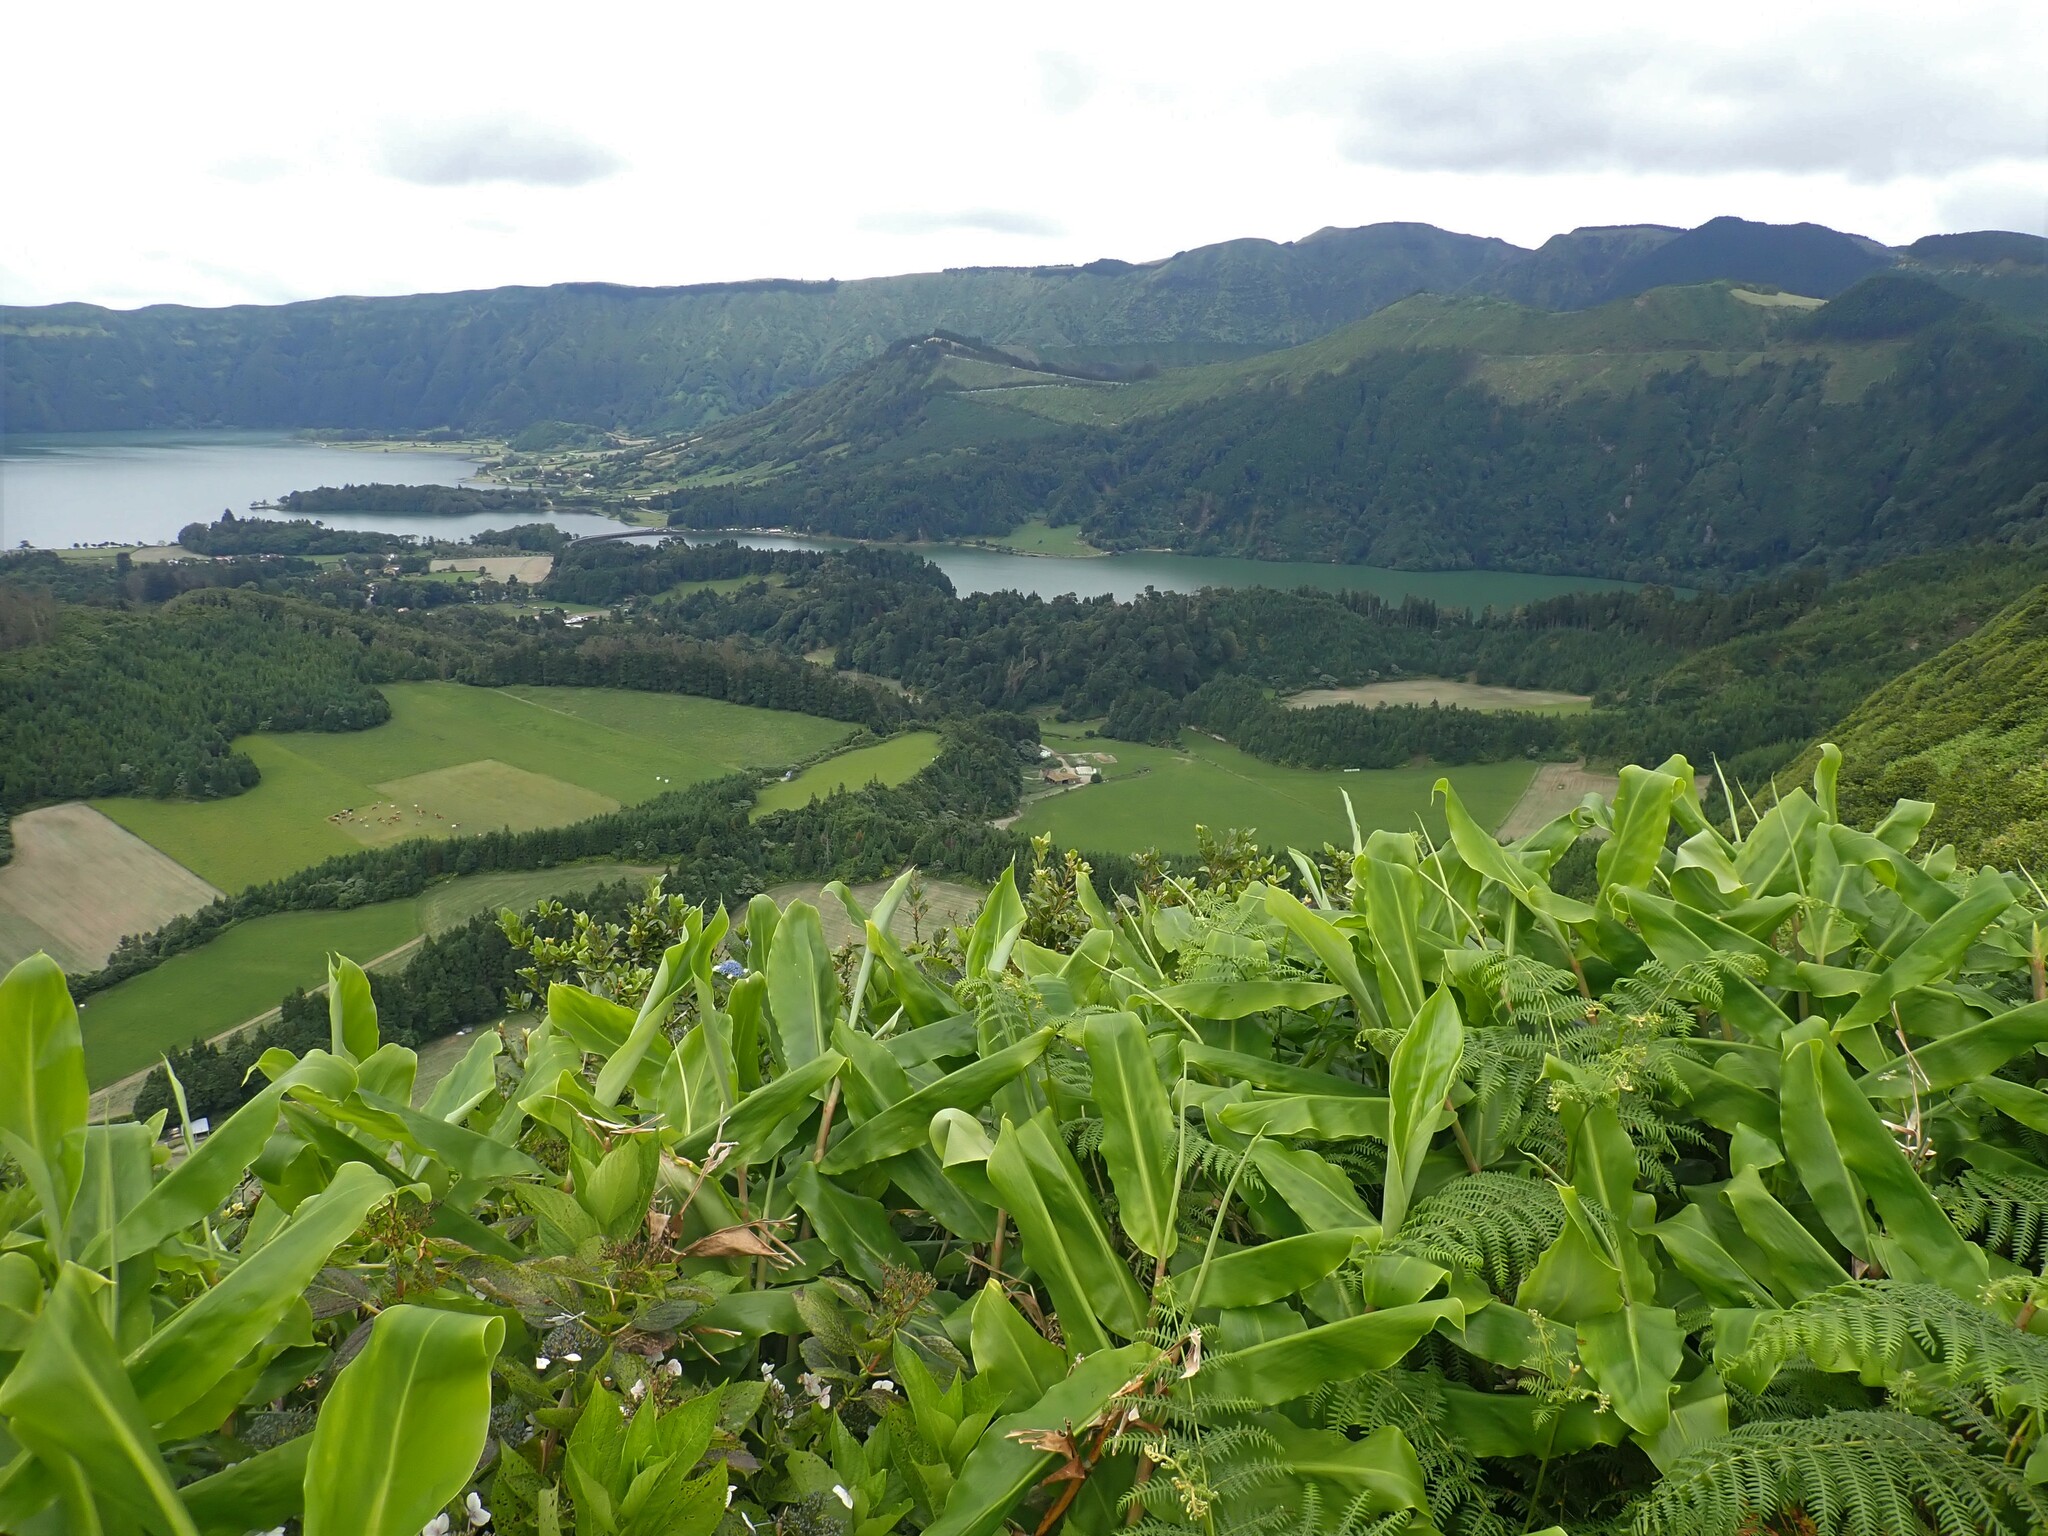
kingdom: Plantae
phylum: Tracheophyta
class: Liliopsida
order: Zingiberales
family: Zingiberaceae
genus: Hedychium
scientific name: Hedychium gardnerianum
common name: Himalayan ginger
